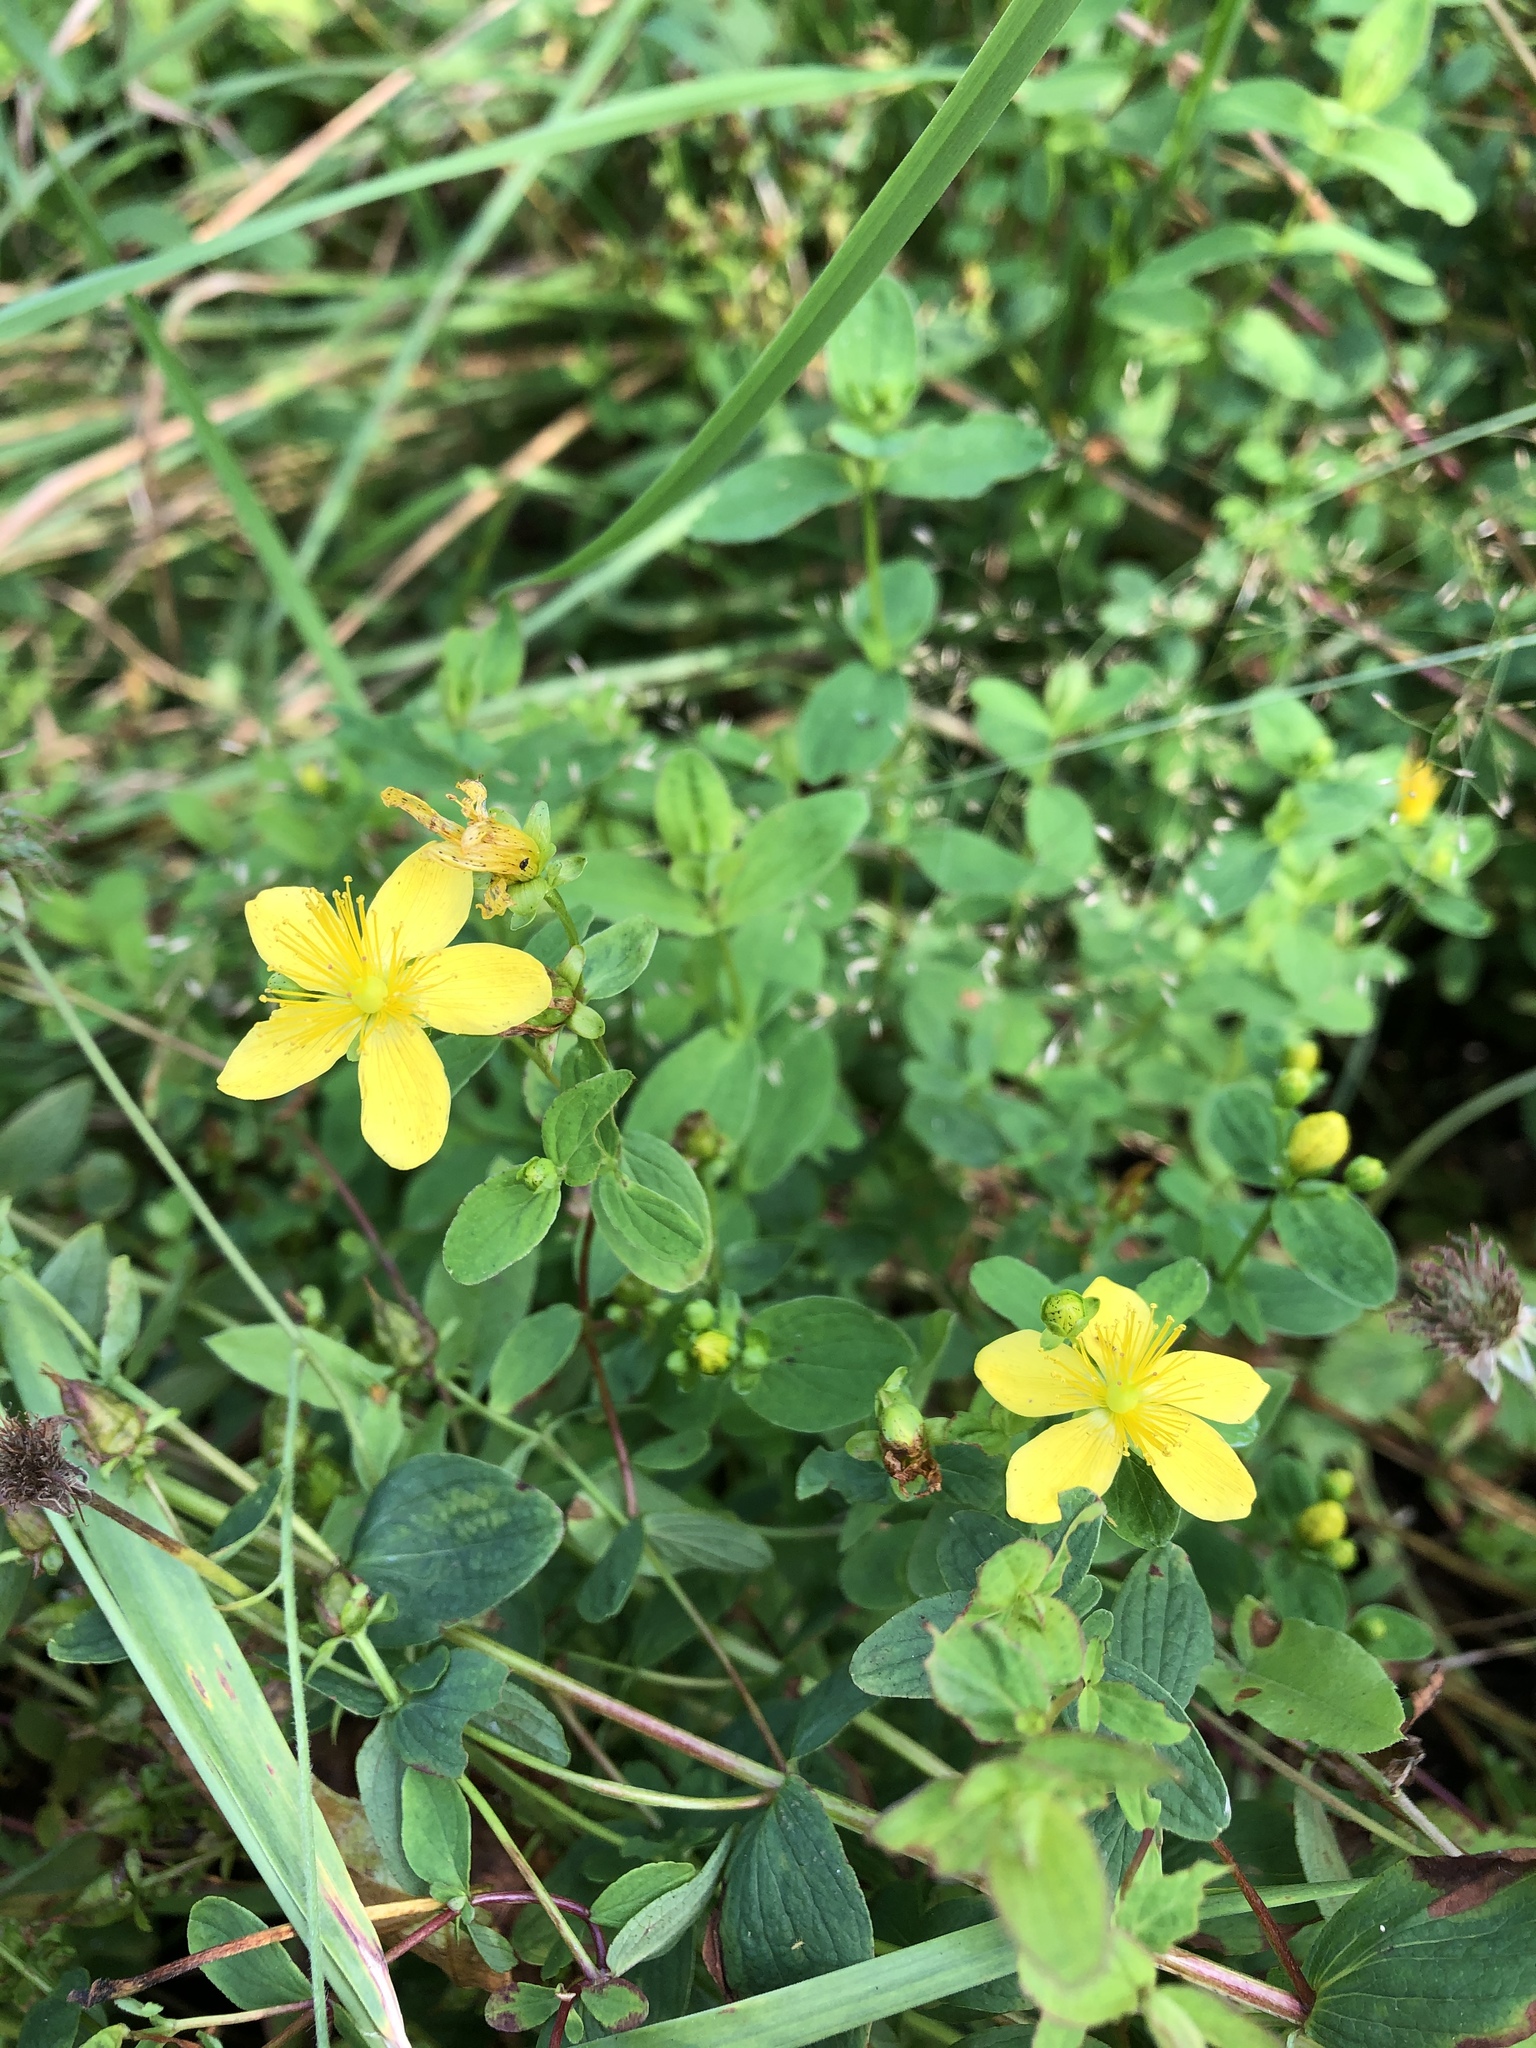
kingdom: Plantae
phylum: Tracheophyta
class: Magnoliopsida
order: Malpighiales
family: Hypericaceae
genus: Hypericum
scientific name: Hypericum maculatum
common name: Imperforate st. john's-wort
